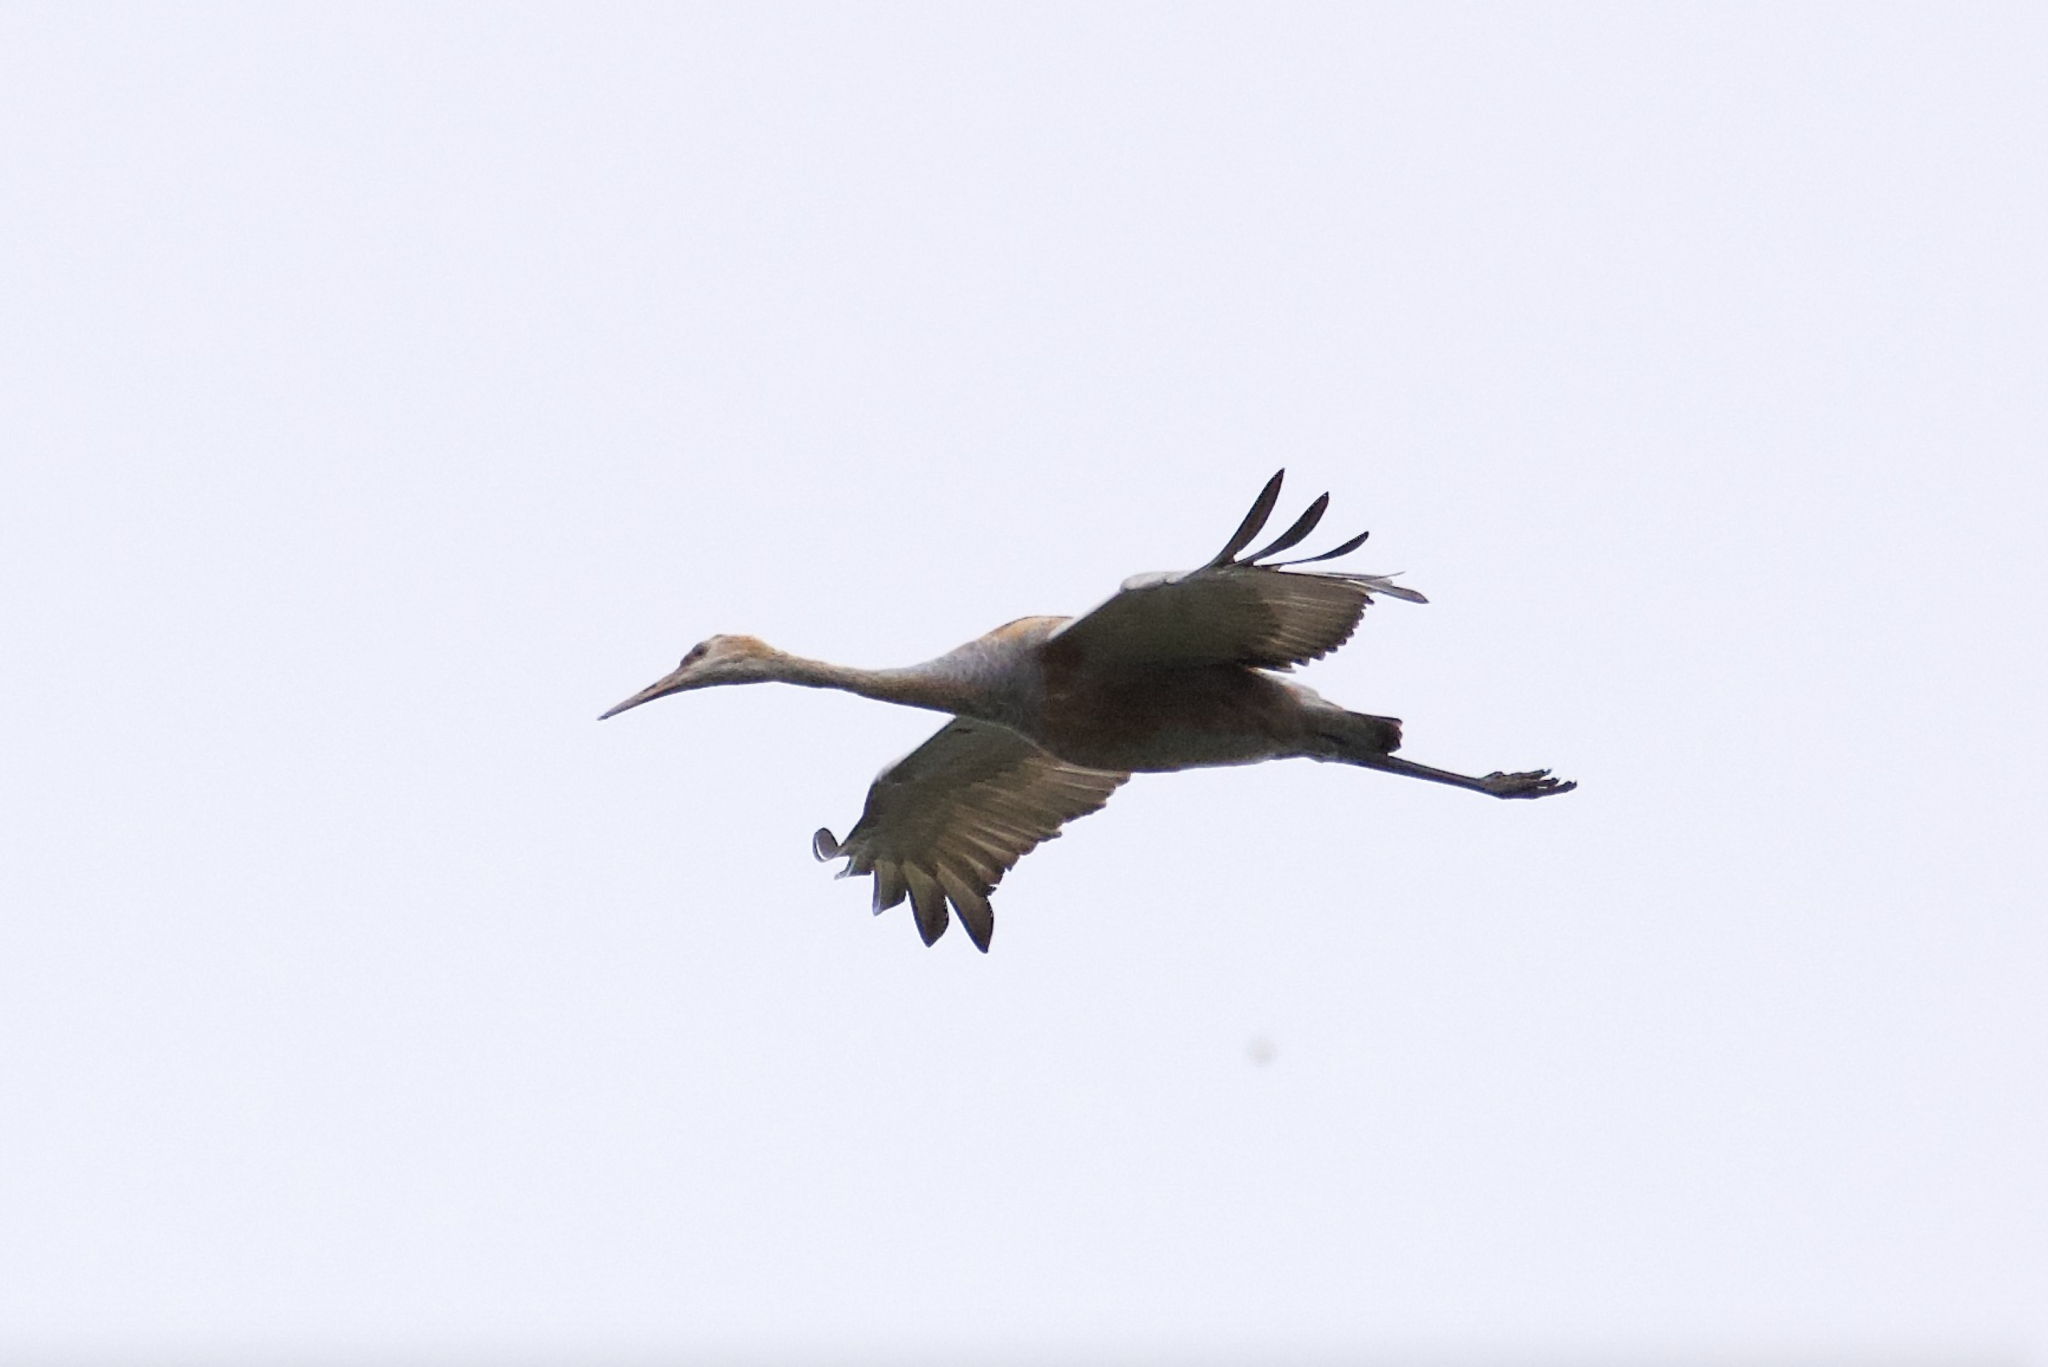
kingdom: Animalia
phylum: Chordata
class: Aves
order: Gruiformes
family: Gruidae
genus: Grus
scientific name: Grus canadensis
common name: Sandhill crane
